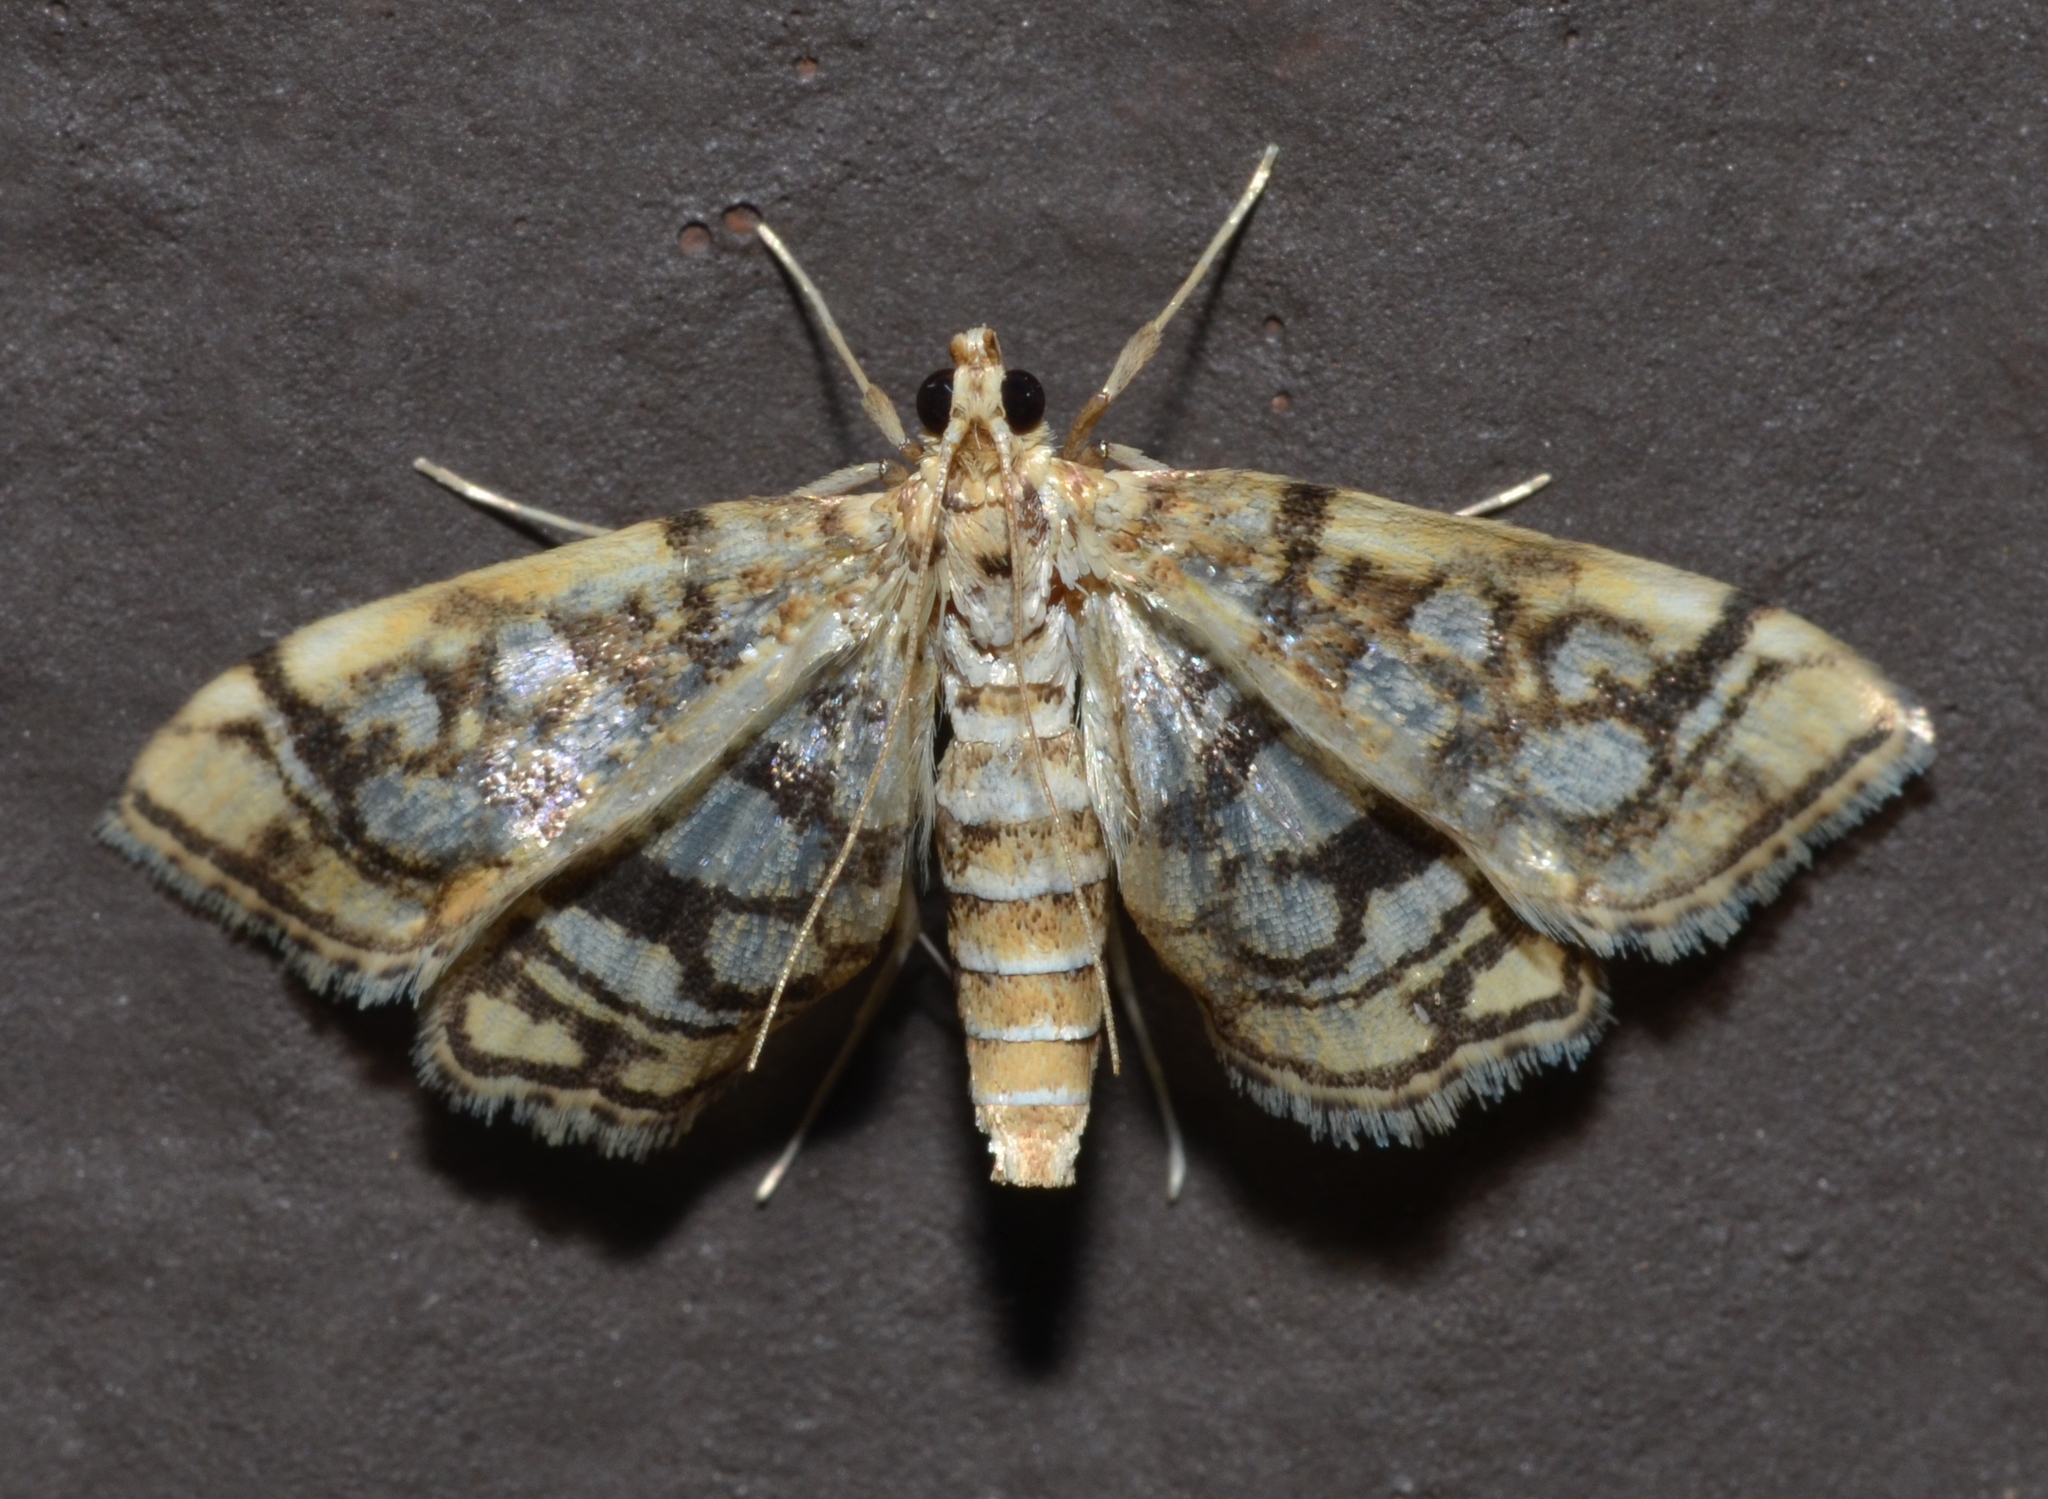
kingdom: Animalia
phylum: Arthropoda
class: Insecta
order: Lepidoptera
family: Crambidae
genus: Lygropia
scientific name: Lygropia rivulalis
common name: Bog lygropia moth
